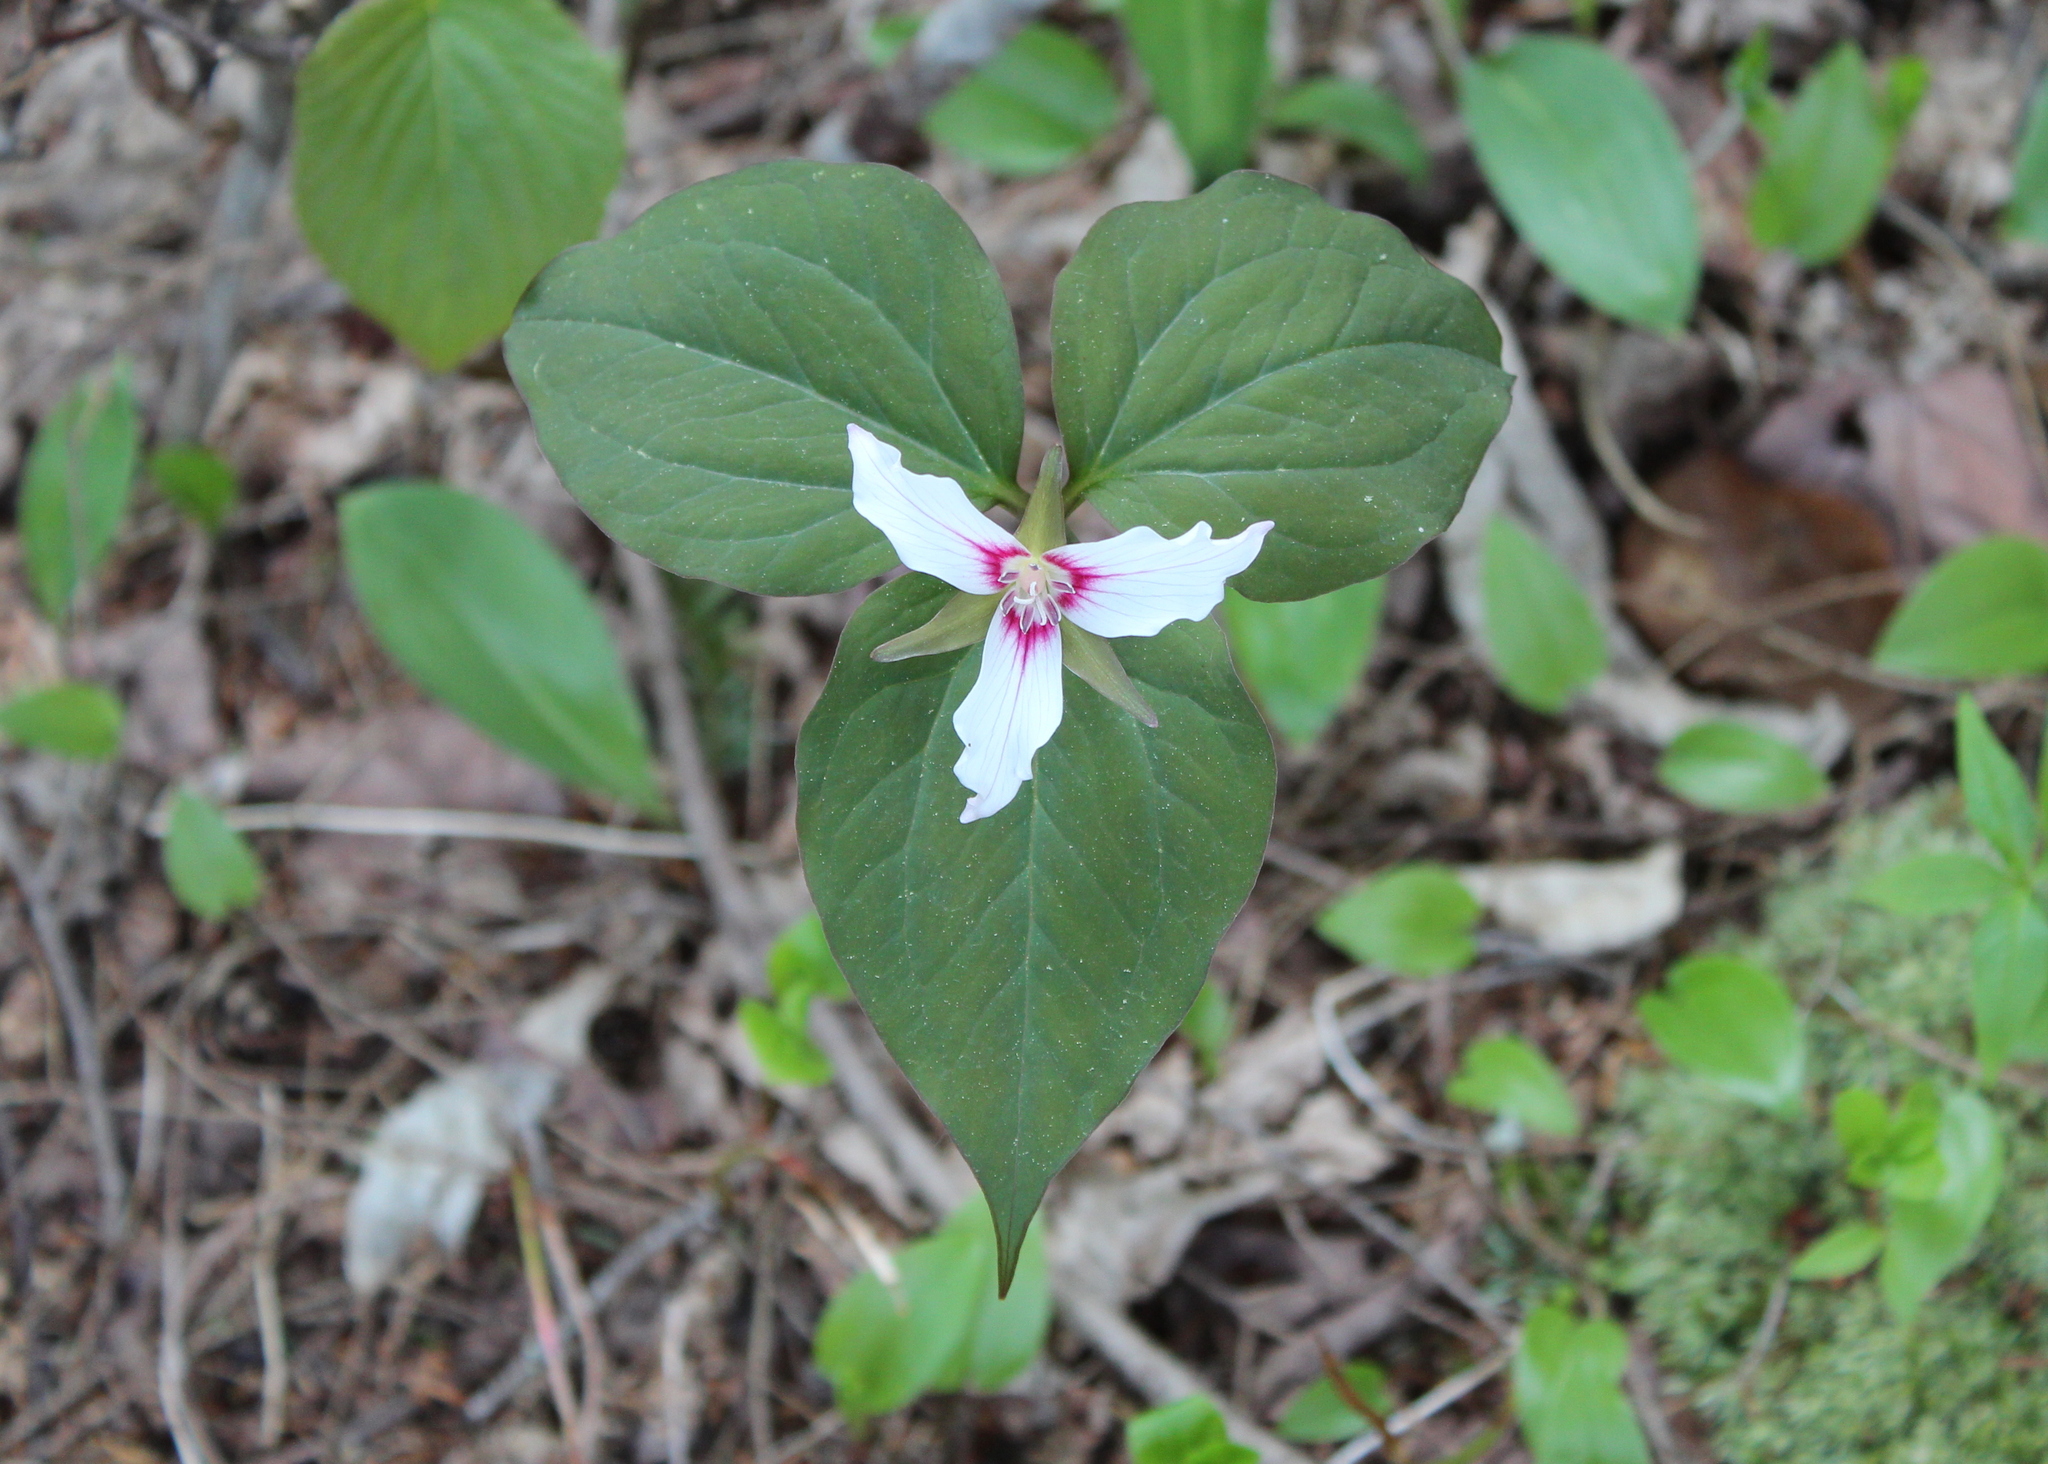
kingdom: Plantae
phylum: Tracheophyta
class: Liliopsida
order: Liliales
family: Melanthiaceae
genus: Trillium
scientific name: Trillium undulatum
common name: Paint trillium
